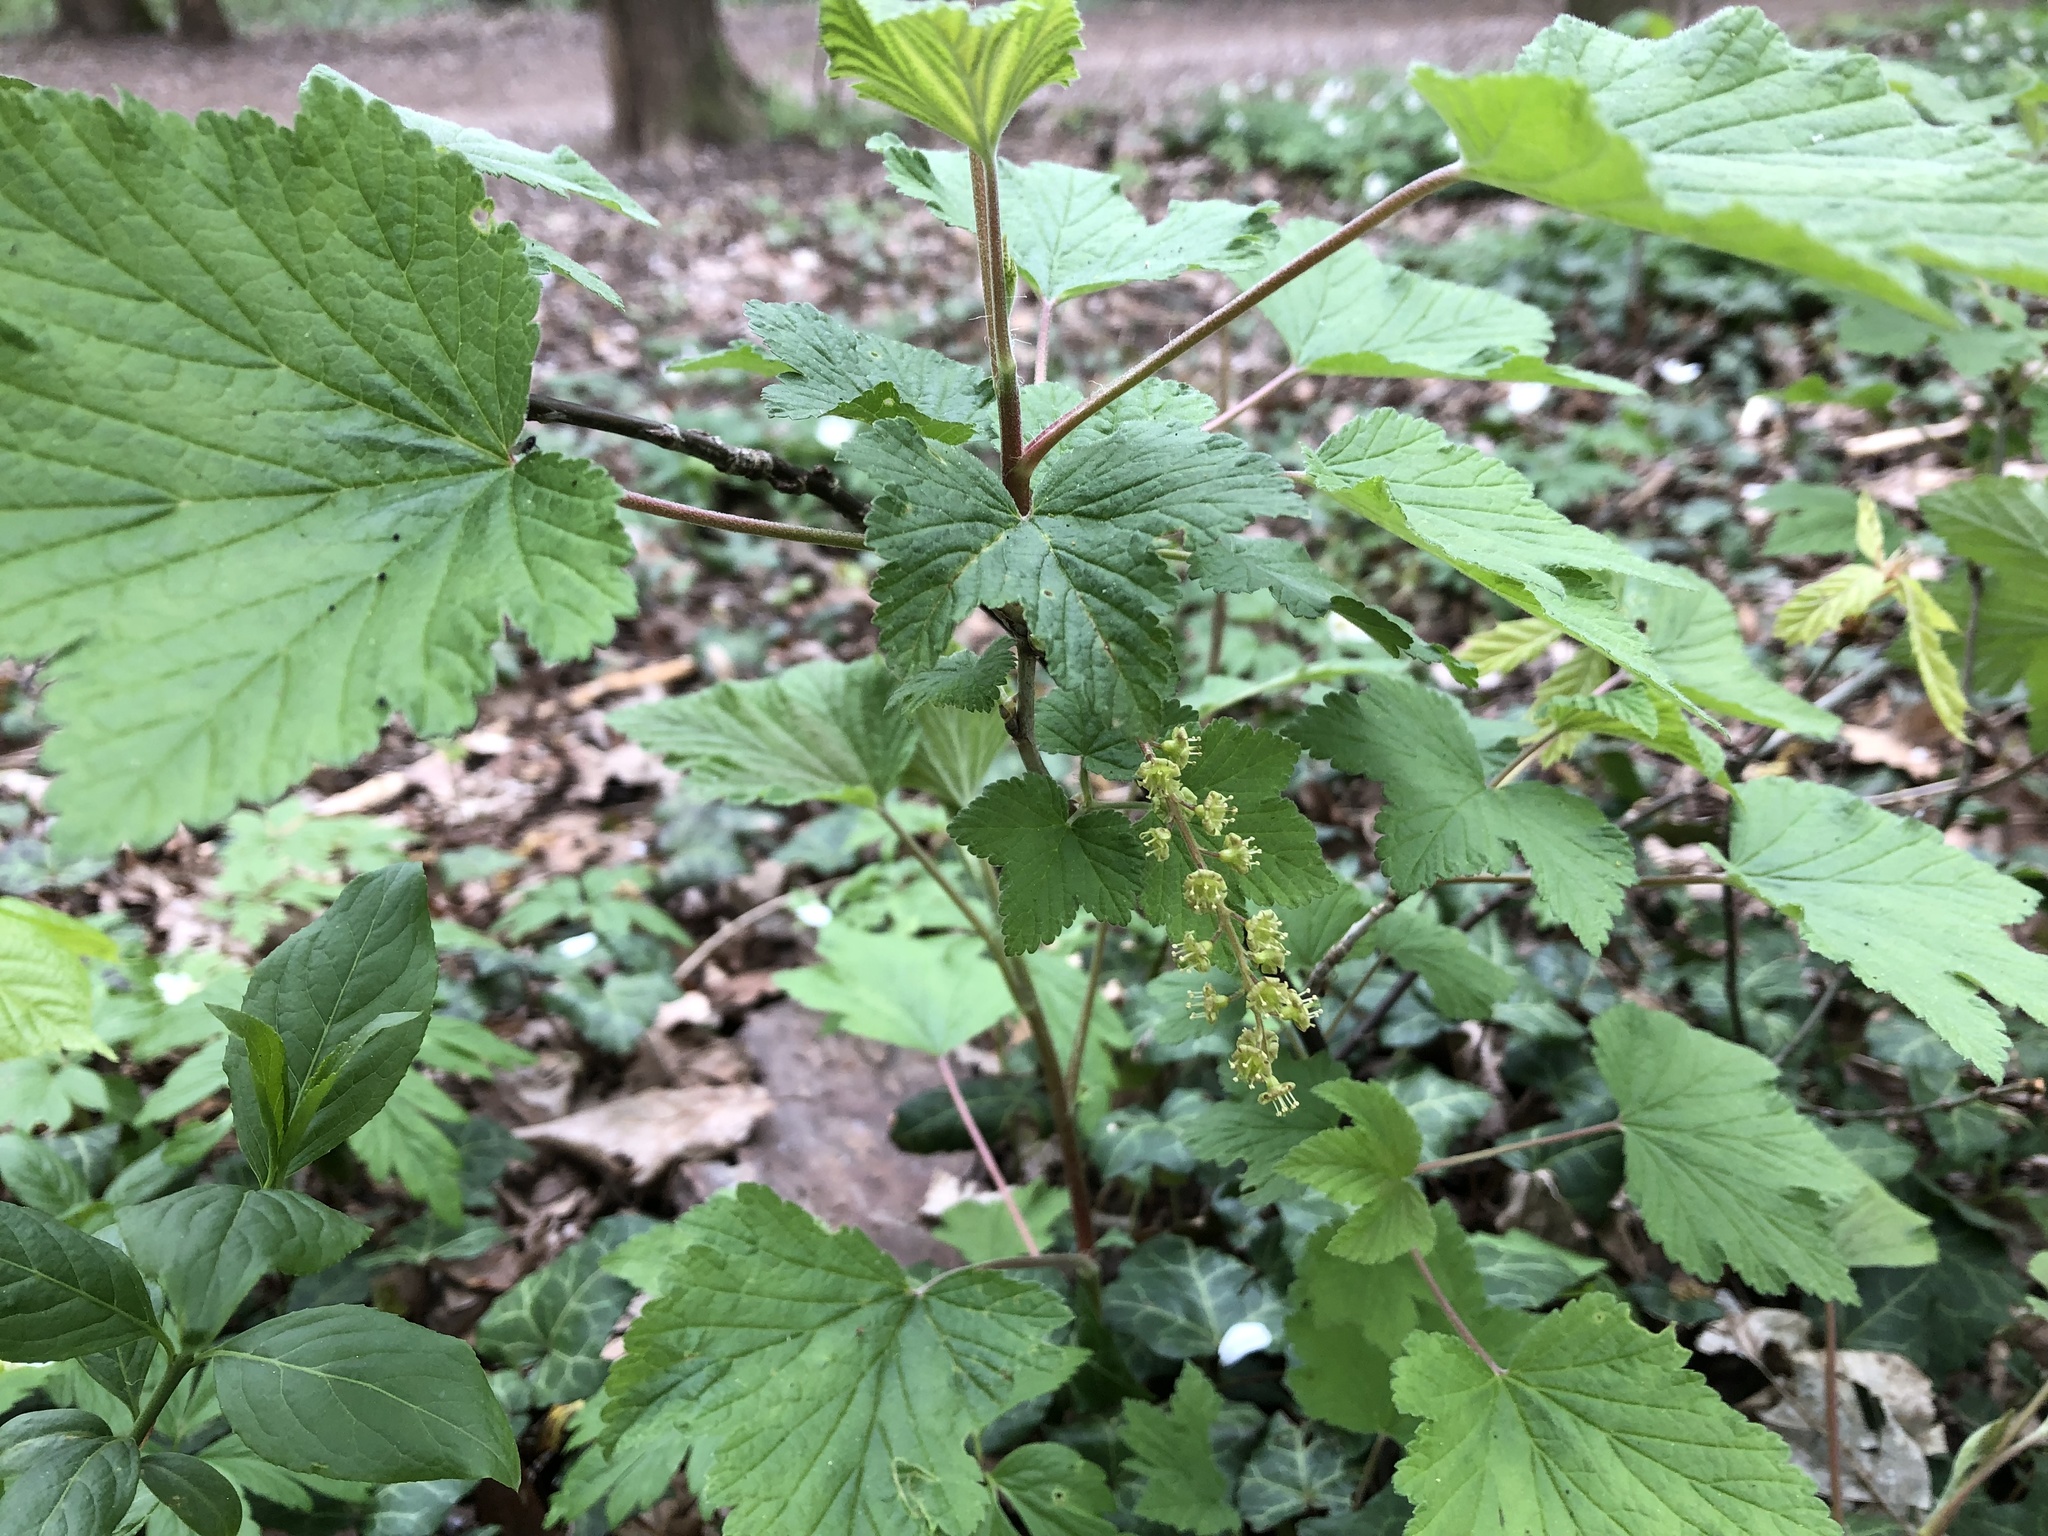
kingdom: Plantae
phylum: Tracheophyta
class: Magnoliopsida
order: Saxifragales
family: Grossulariaceae
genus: Ribes
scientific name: Ribes rubrum
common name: Red currant
